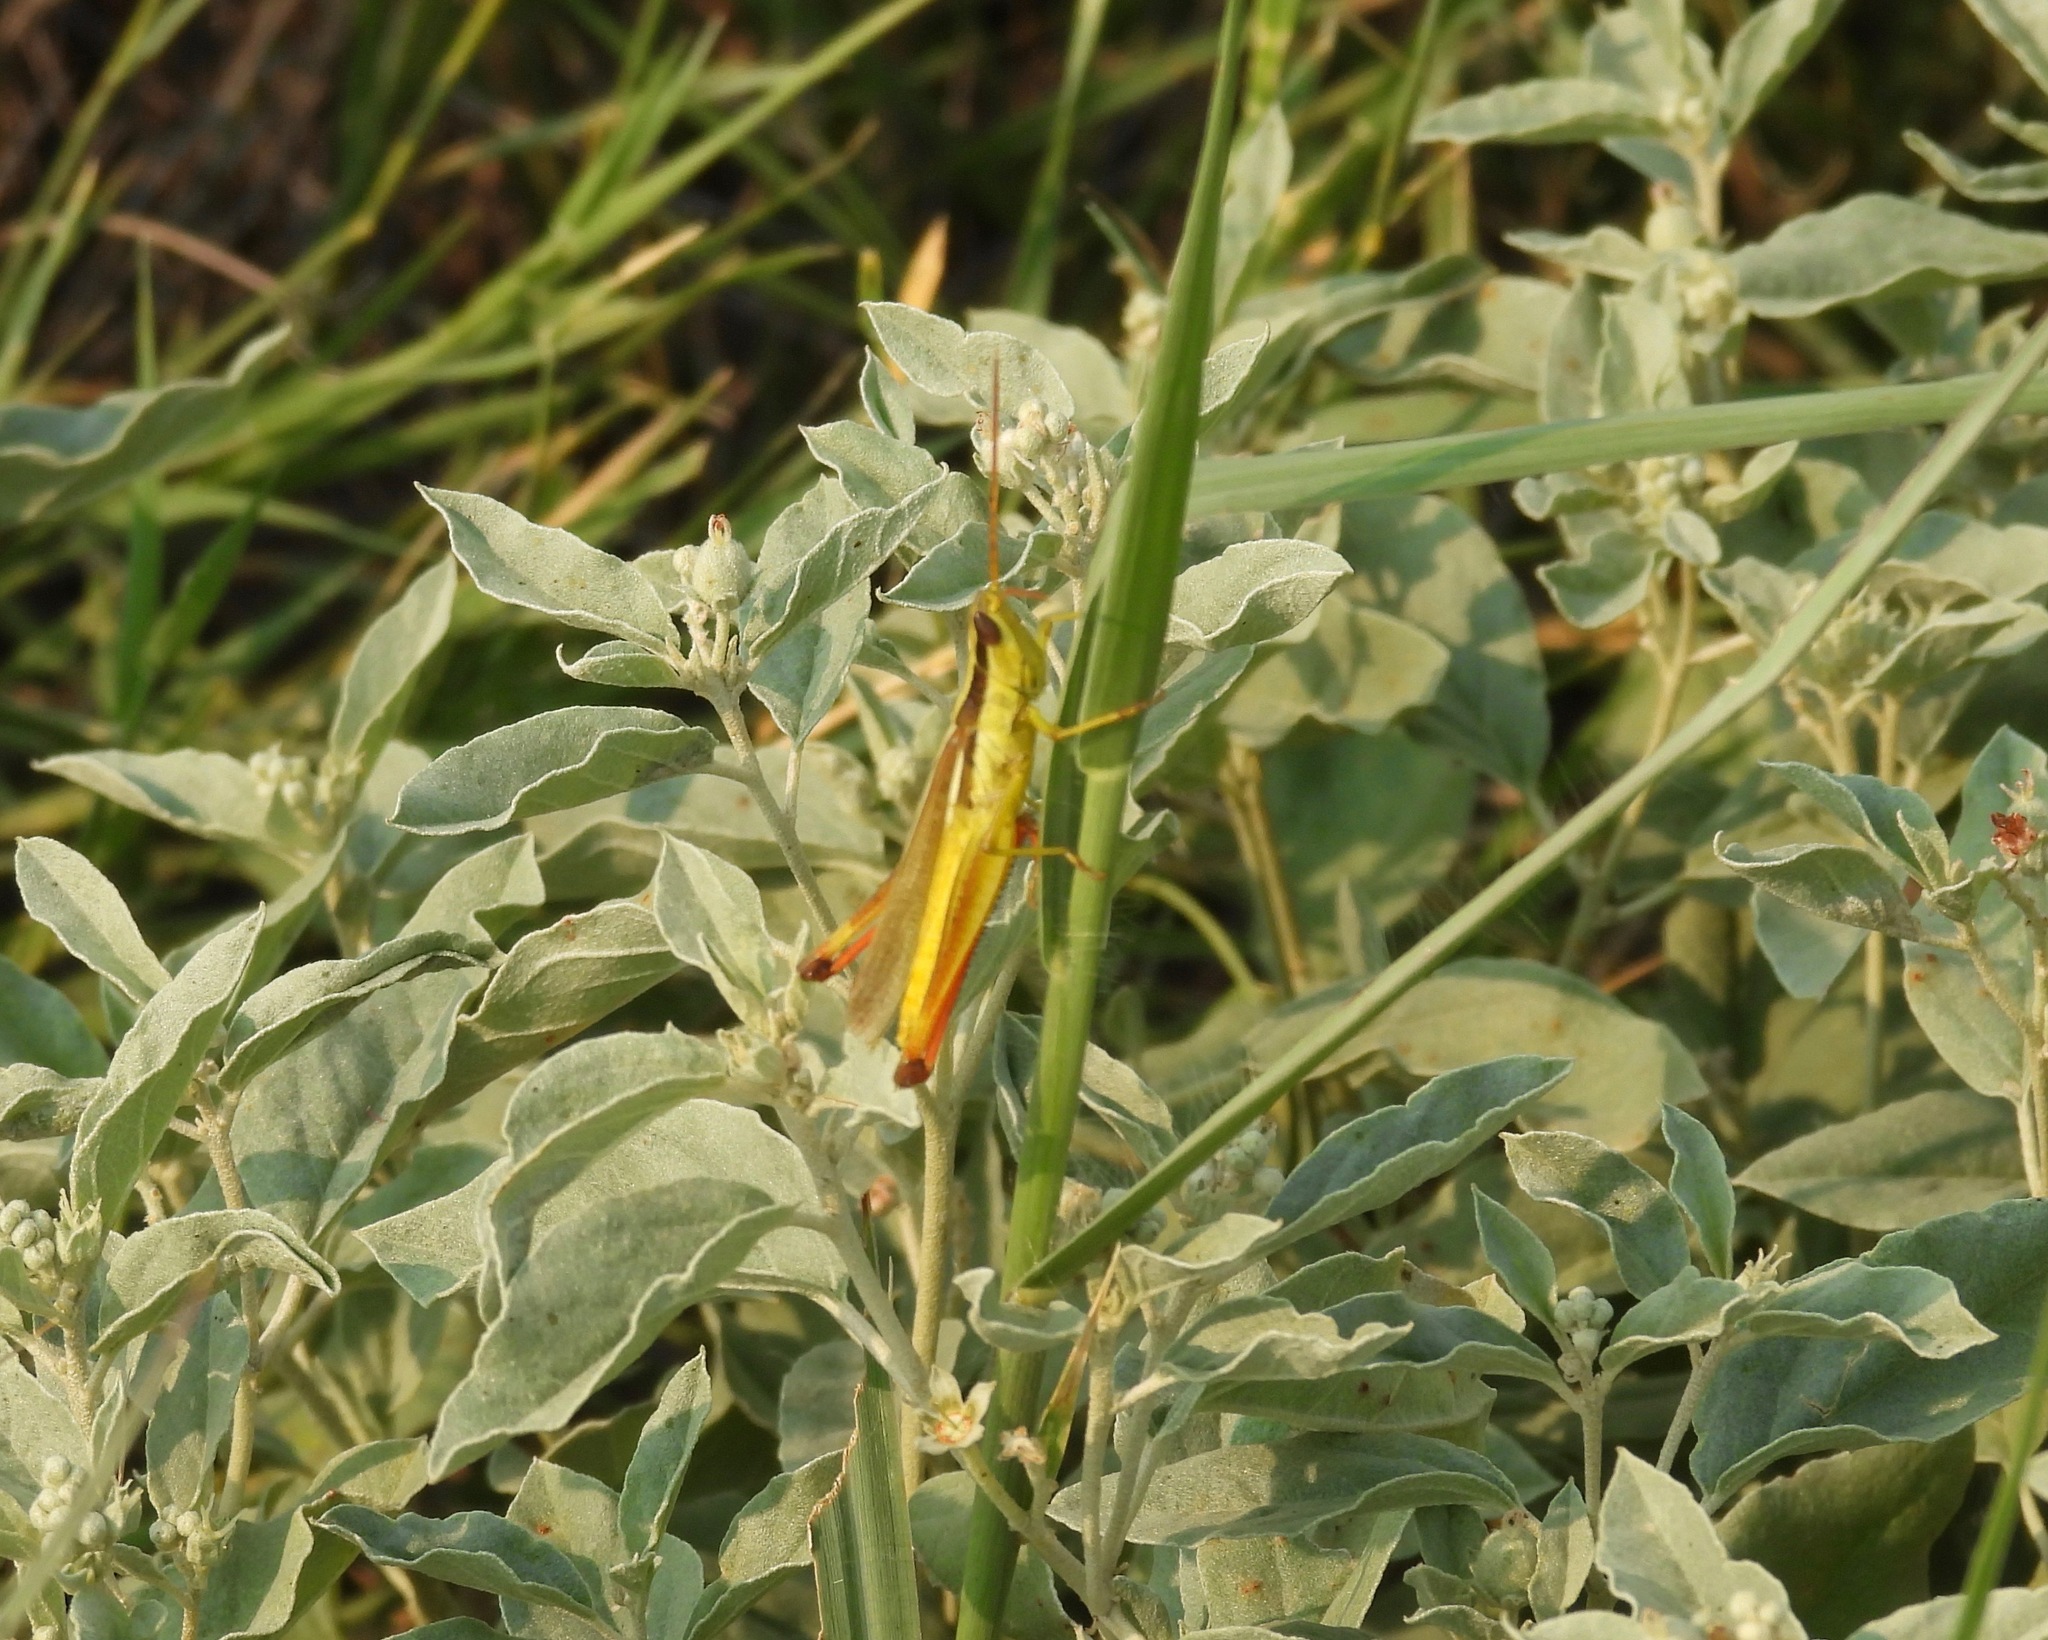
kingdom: Animalia
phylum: Arthropoda
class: Insecta
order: Orthoptera
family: Acrididae
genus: Mermiria
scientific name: Mermiria bivittata
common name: Two-striped mermiria grasshopper
